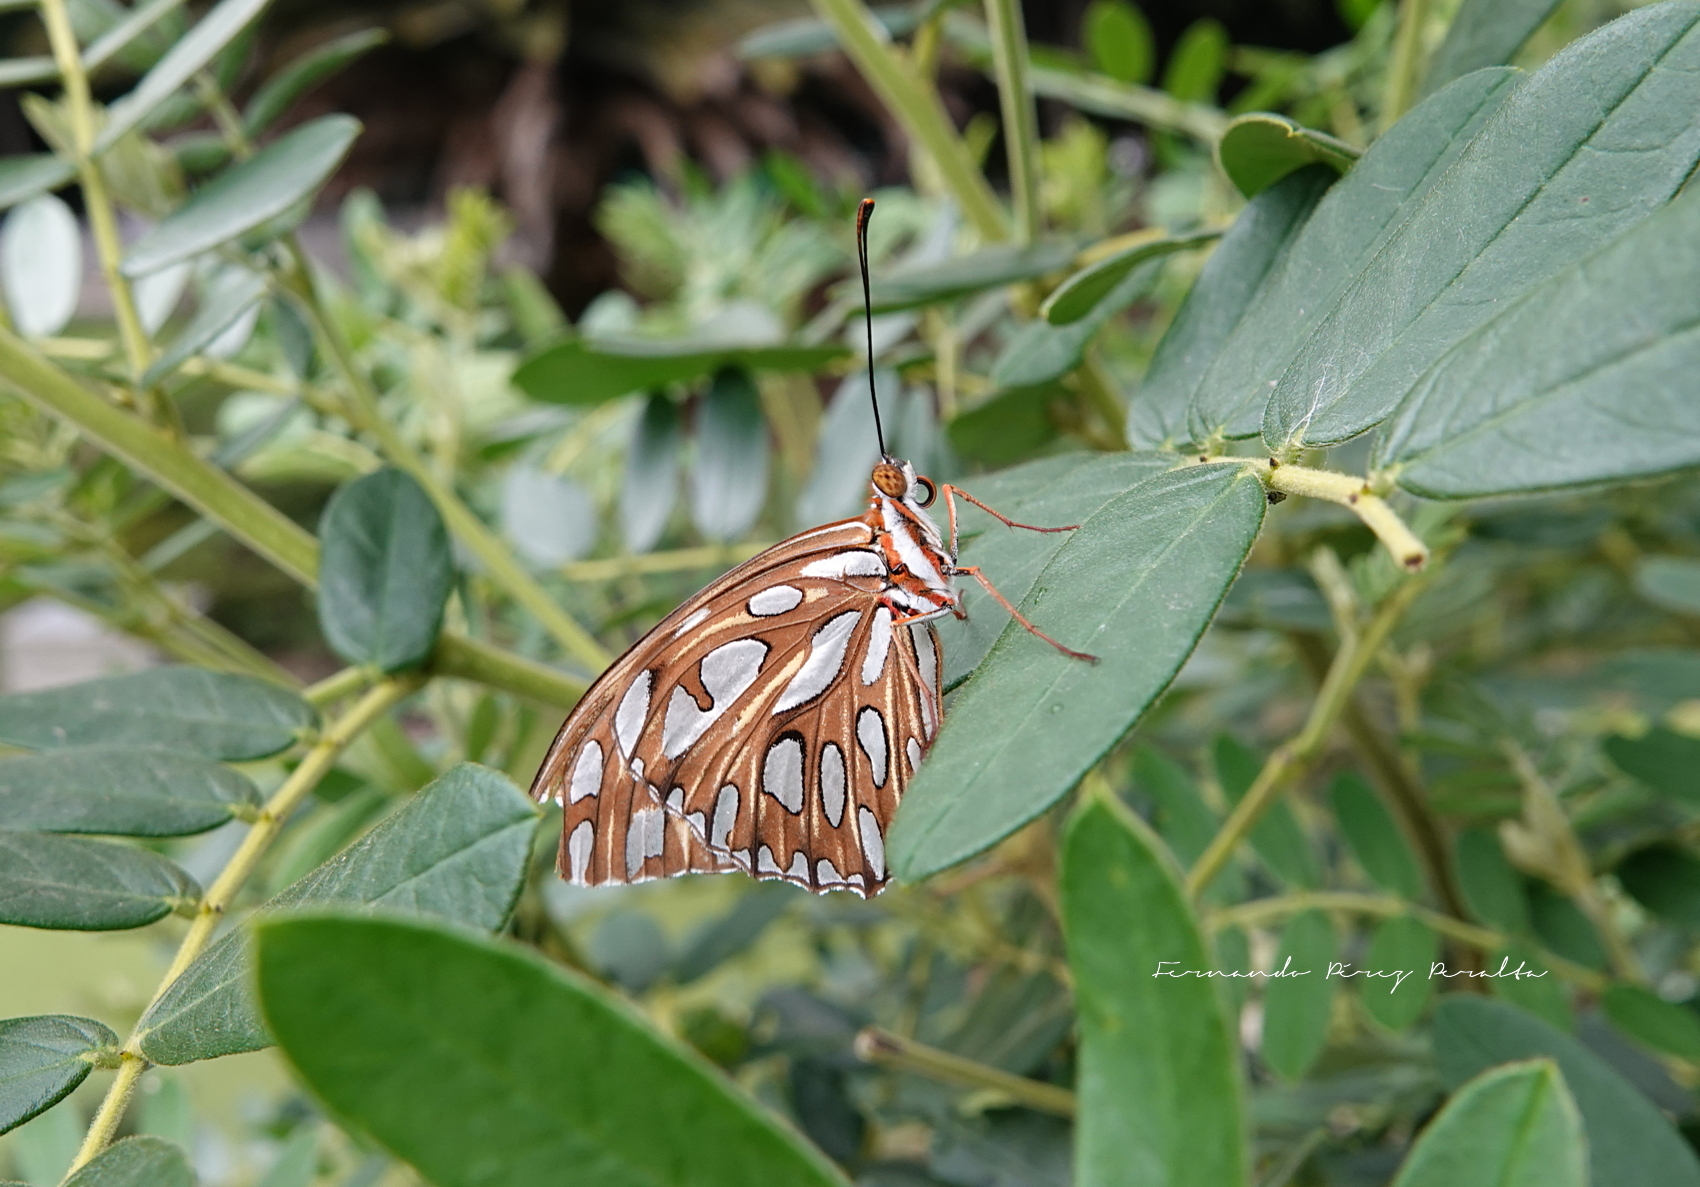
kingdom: Animalia
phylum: Arthropoda
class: Insecta
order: Lepidoptera
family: Nymphalidae
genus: Dione
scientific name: Dione vanillae
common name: Gulf fritillary
